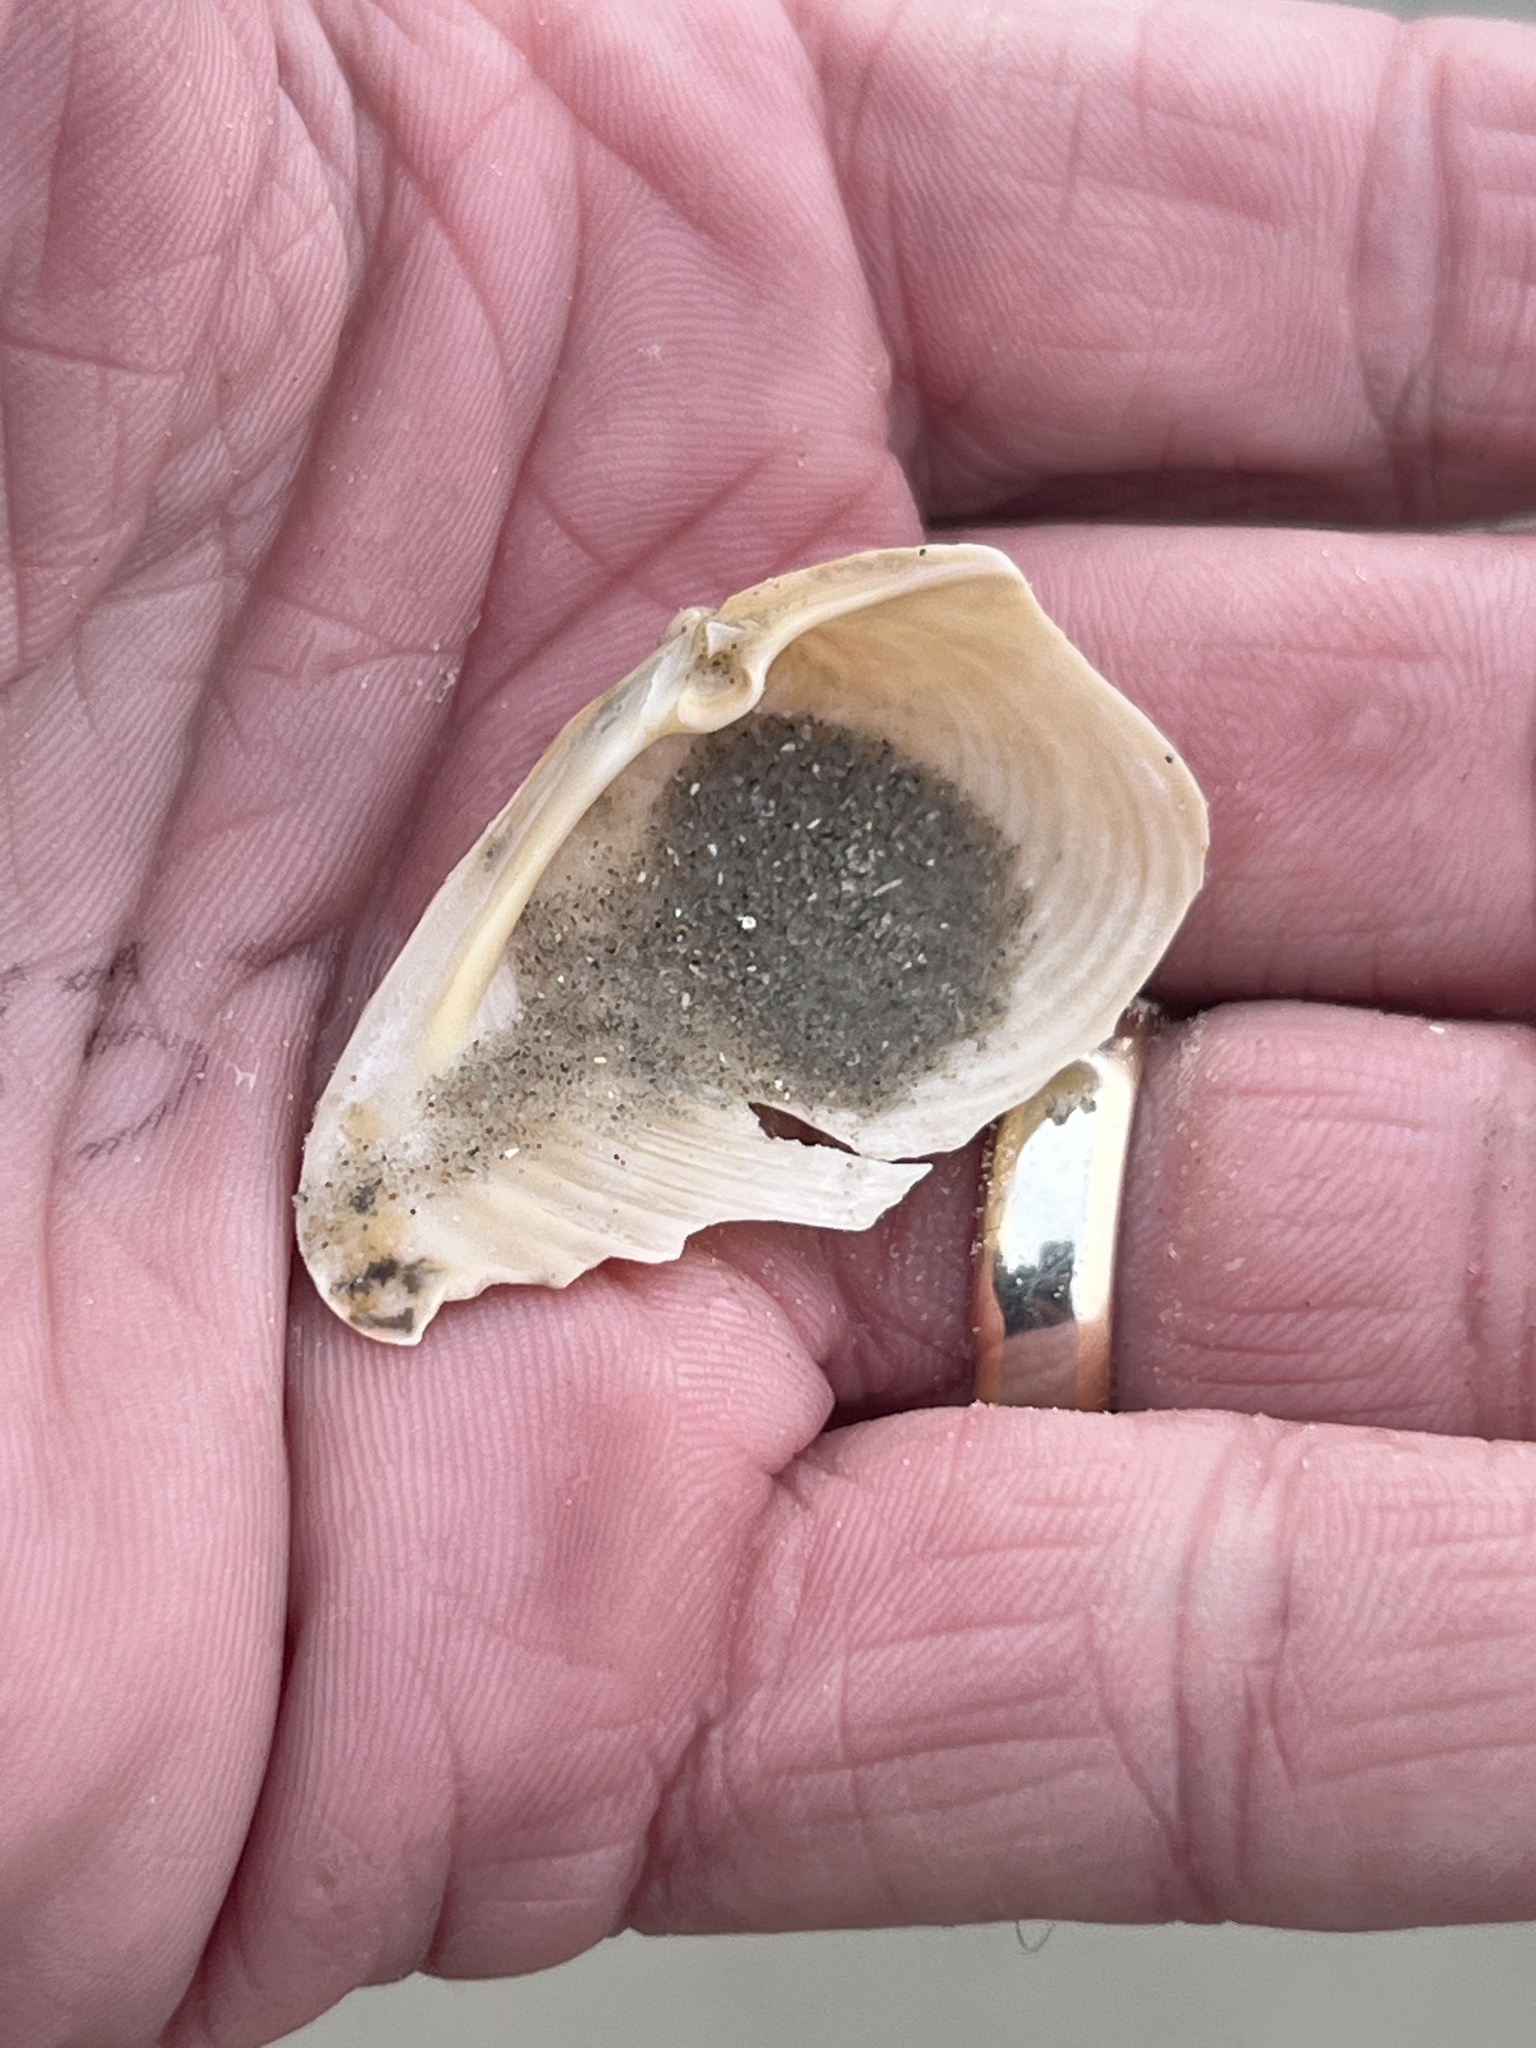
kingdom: Animalia
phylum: Mollusca
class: Bivalvia
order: Venerida
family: Anatinellidae
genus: Raeta
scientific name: Raeta plicatella
